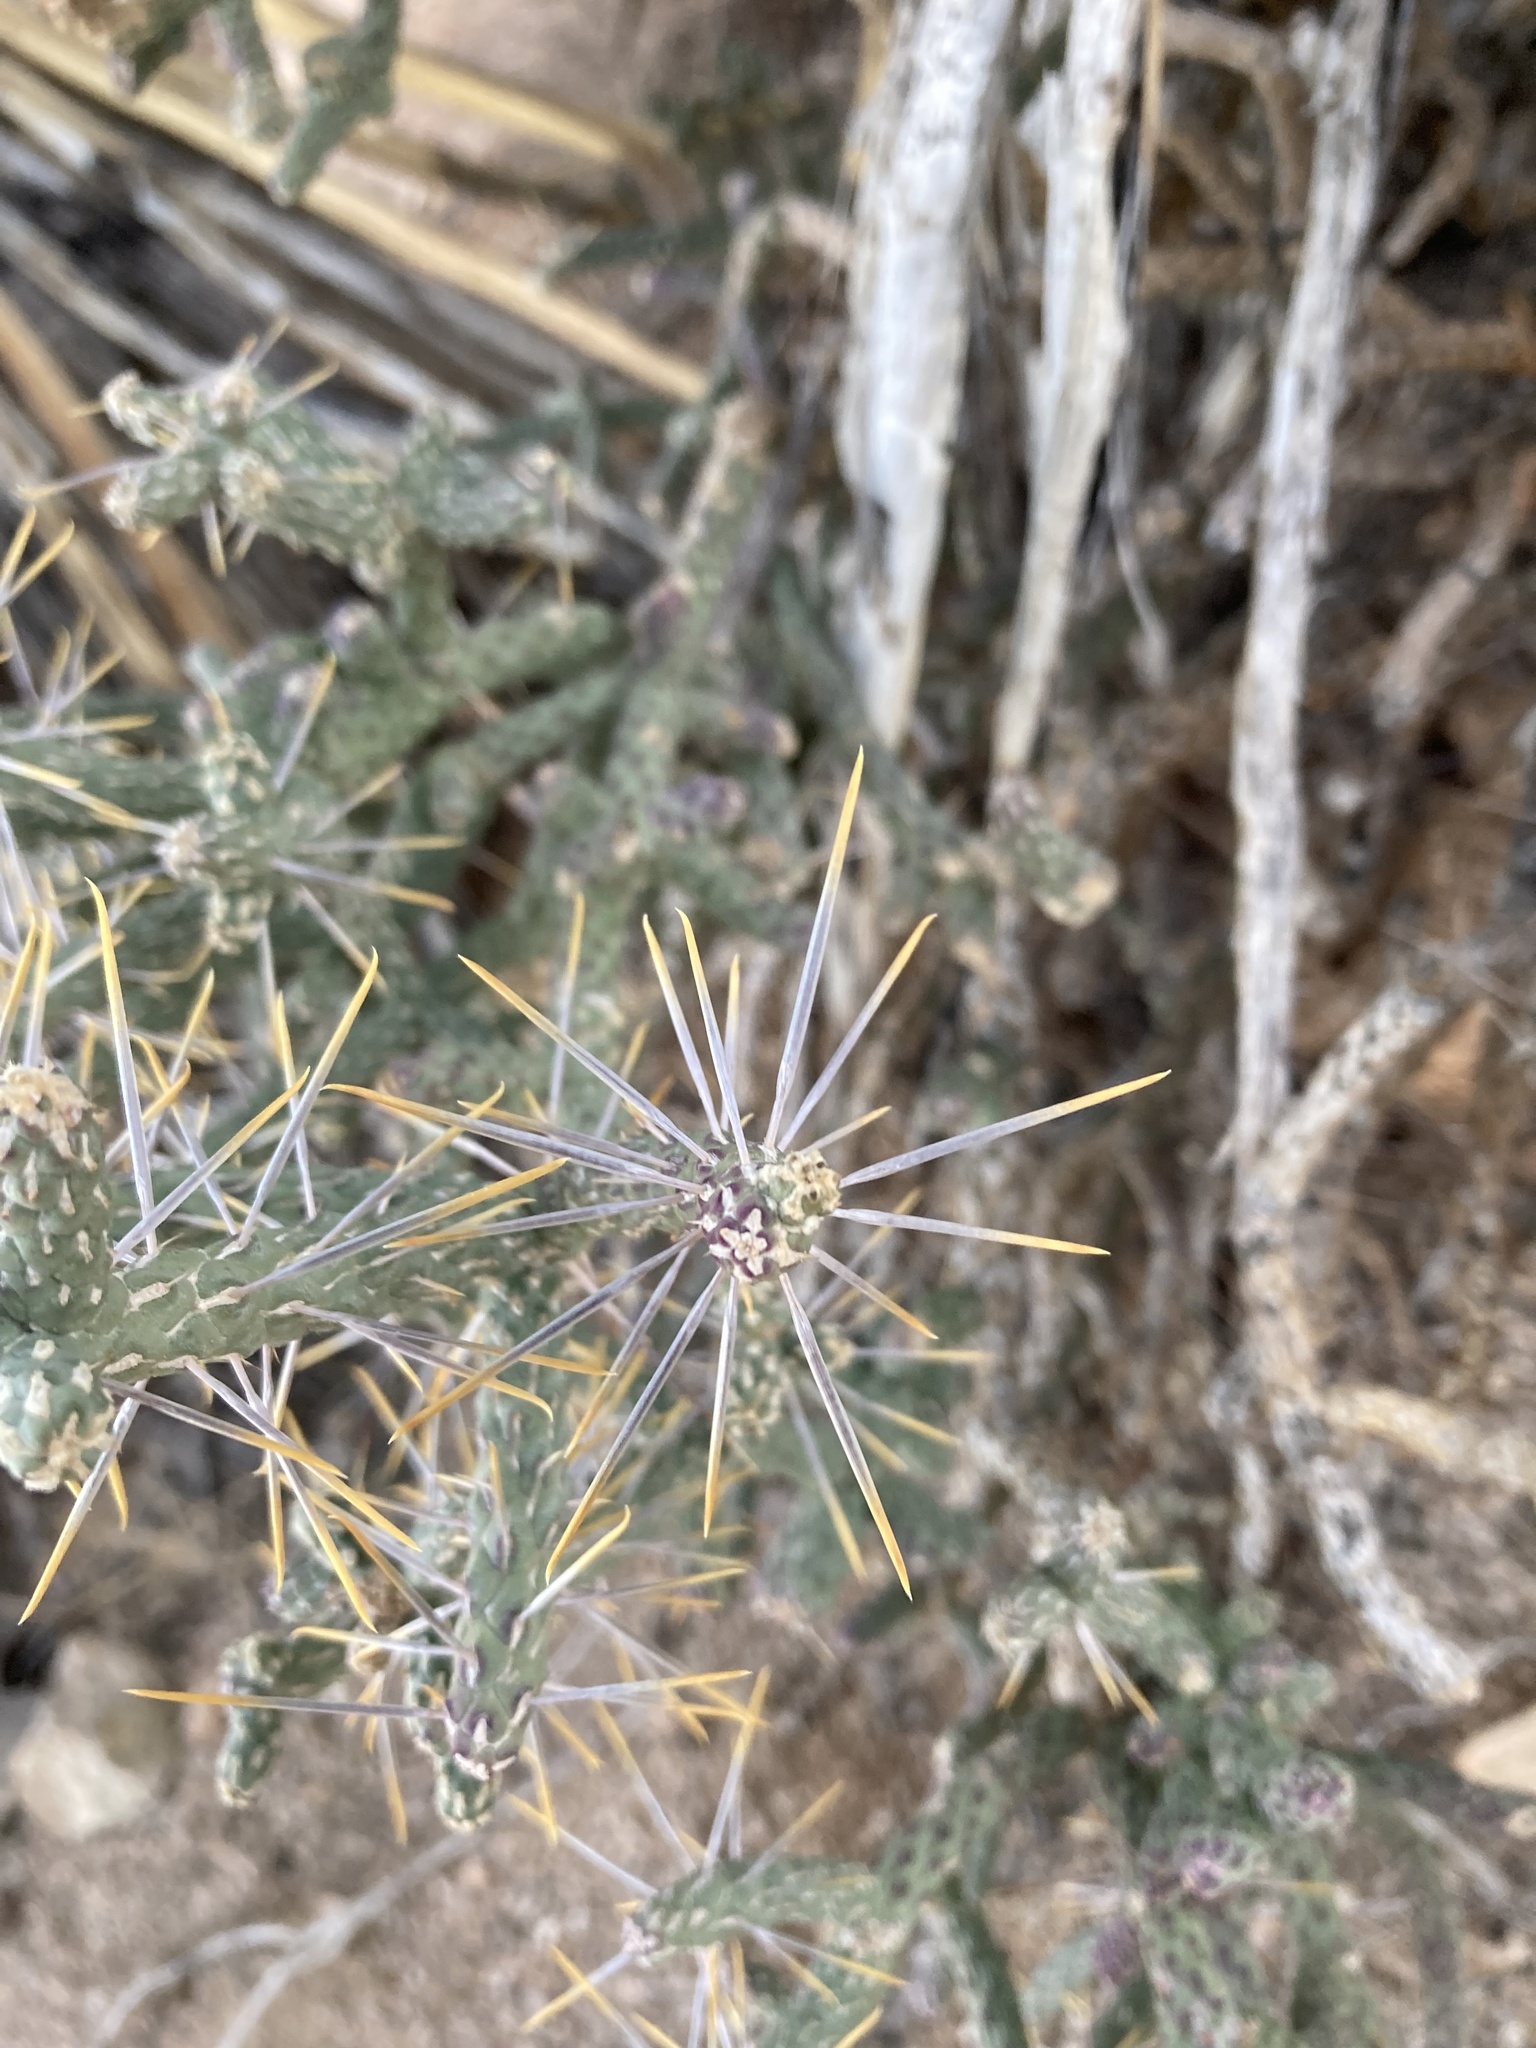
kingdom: Plantae
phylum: Tracheophyta
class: Magnoliopsida
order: Caryophyllales
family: Cactaceae
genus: Cylindropuntia
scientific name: Cylindropuntia ramosissima
